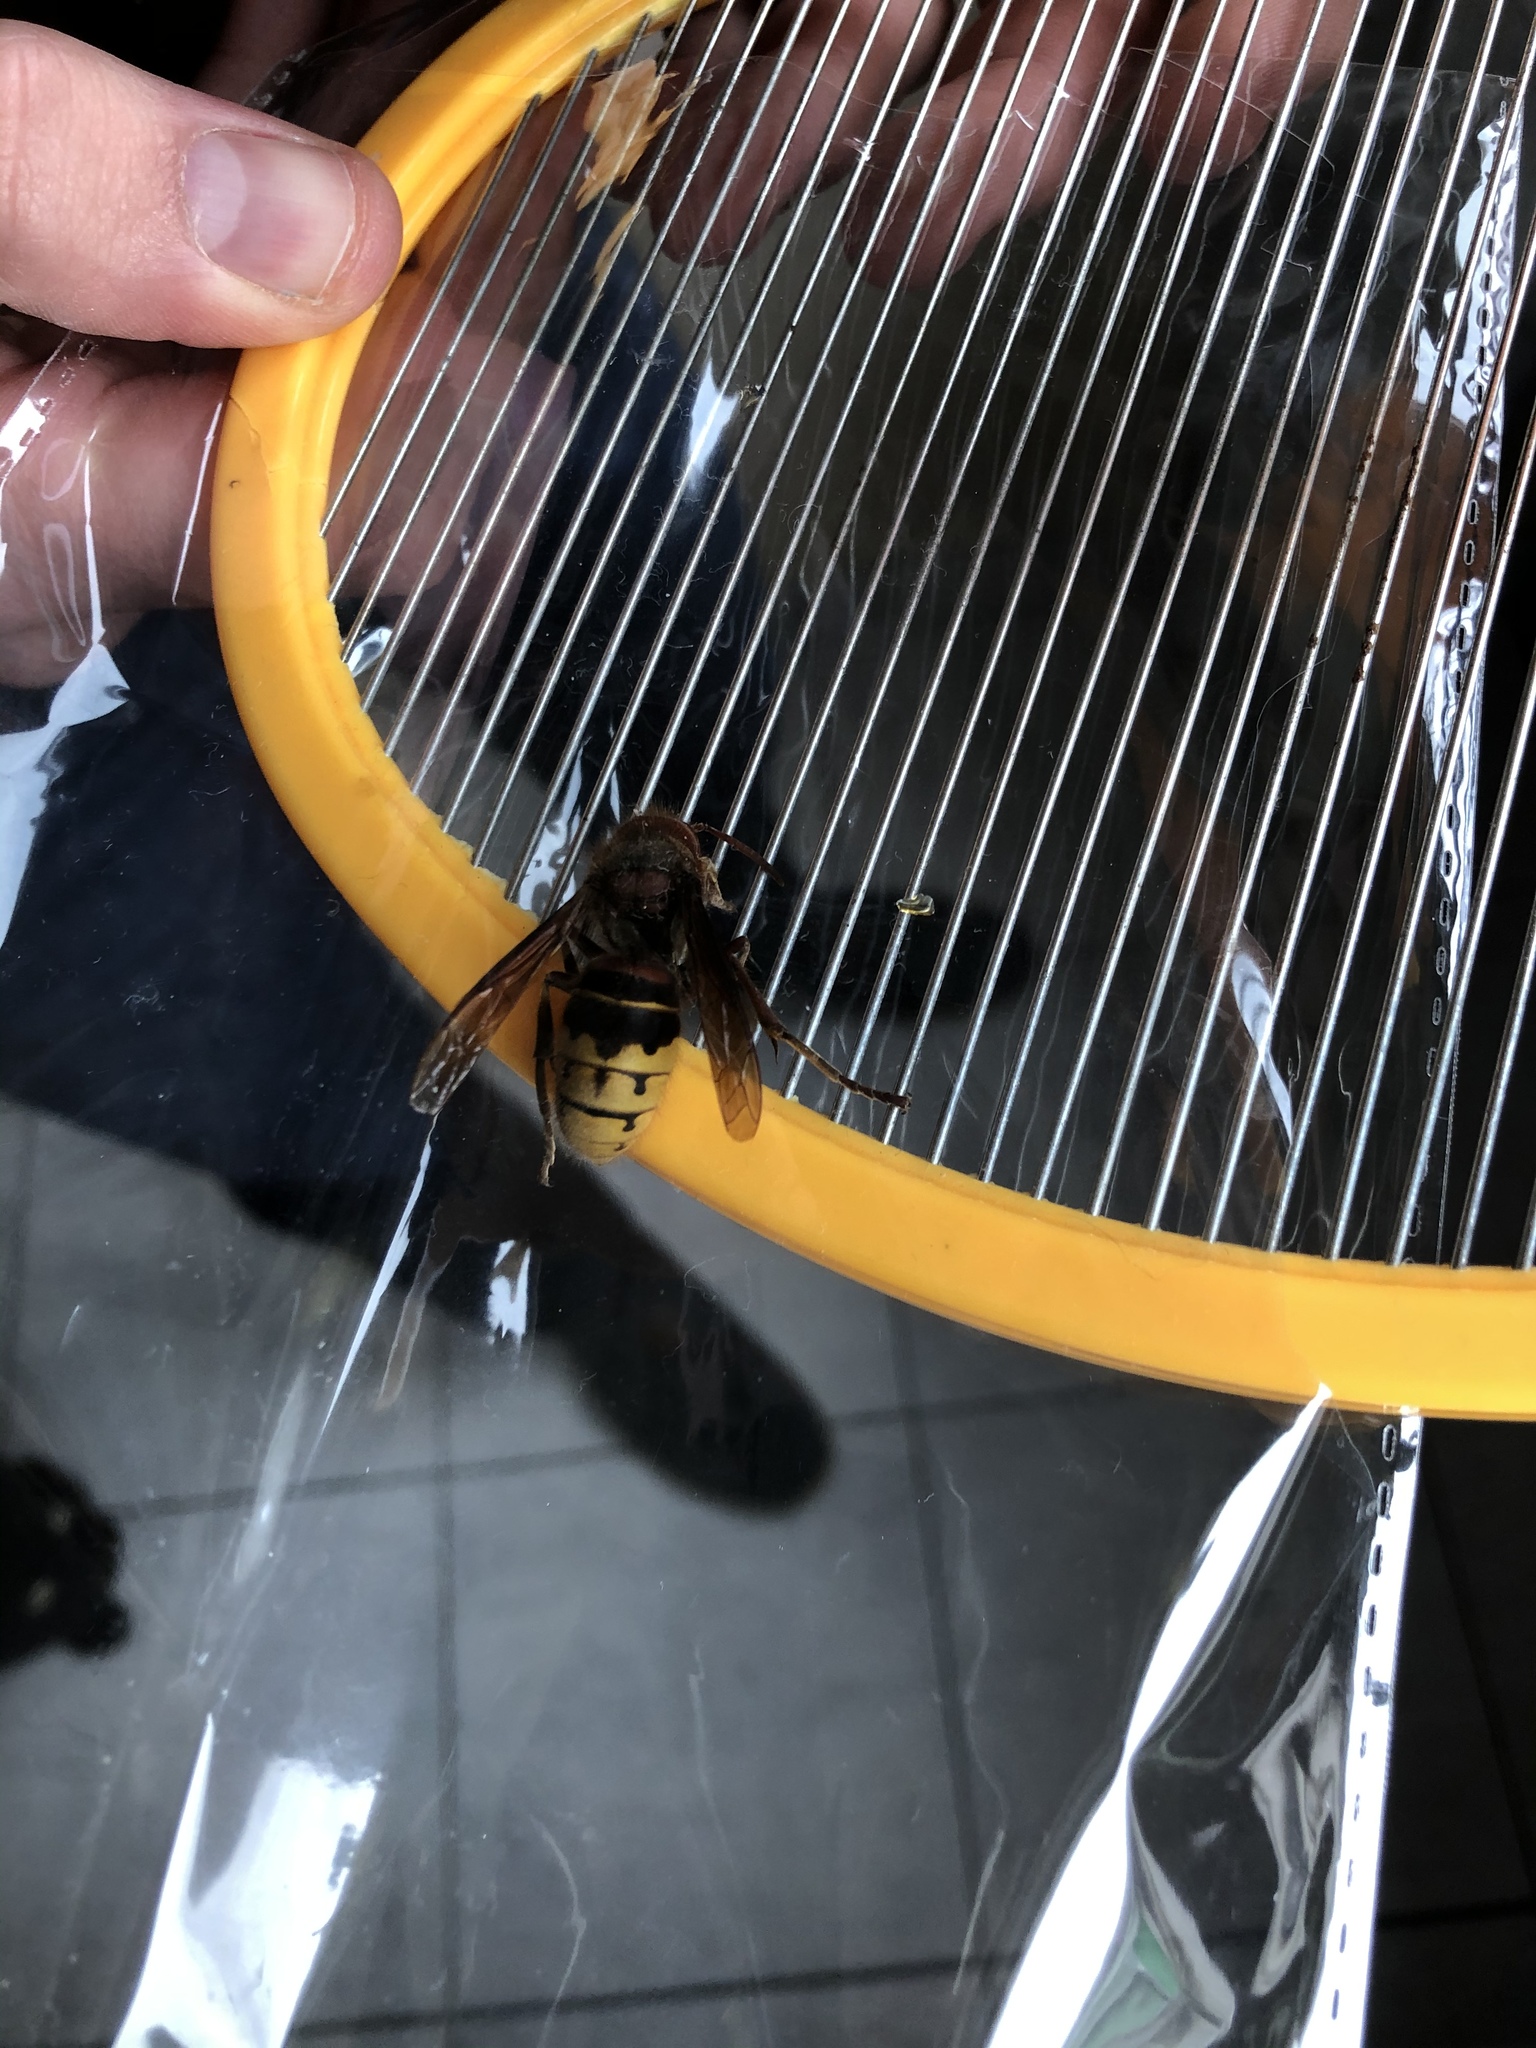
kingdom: Animalia
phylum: Arthropoda
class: Insecta
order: Hymenoptera
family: Vespidae
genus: Vespa
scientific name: Vespa crabro
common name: Hornet
